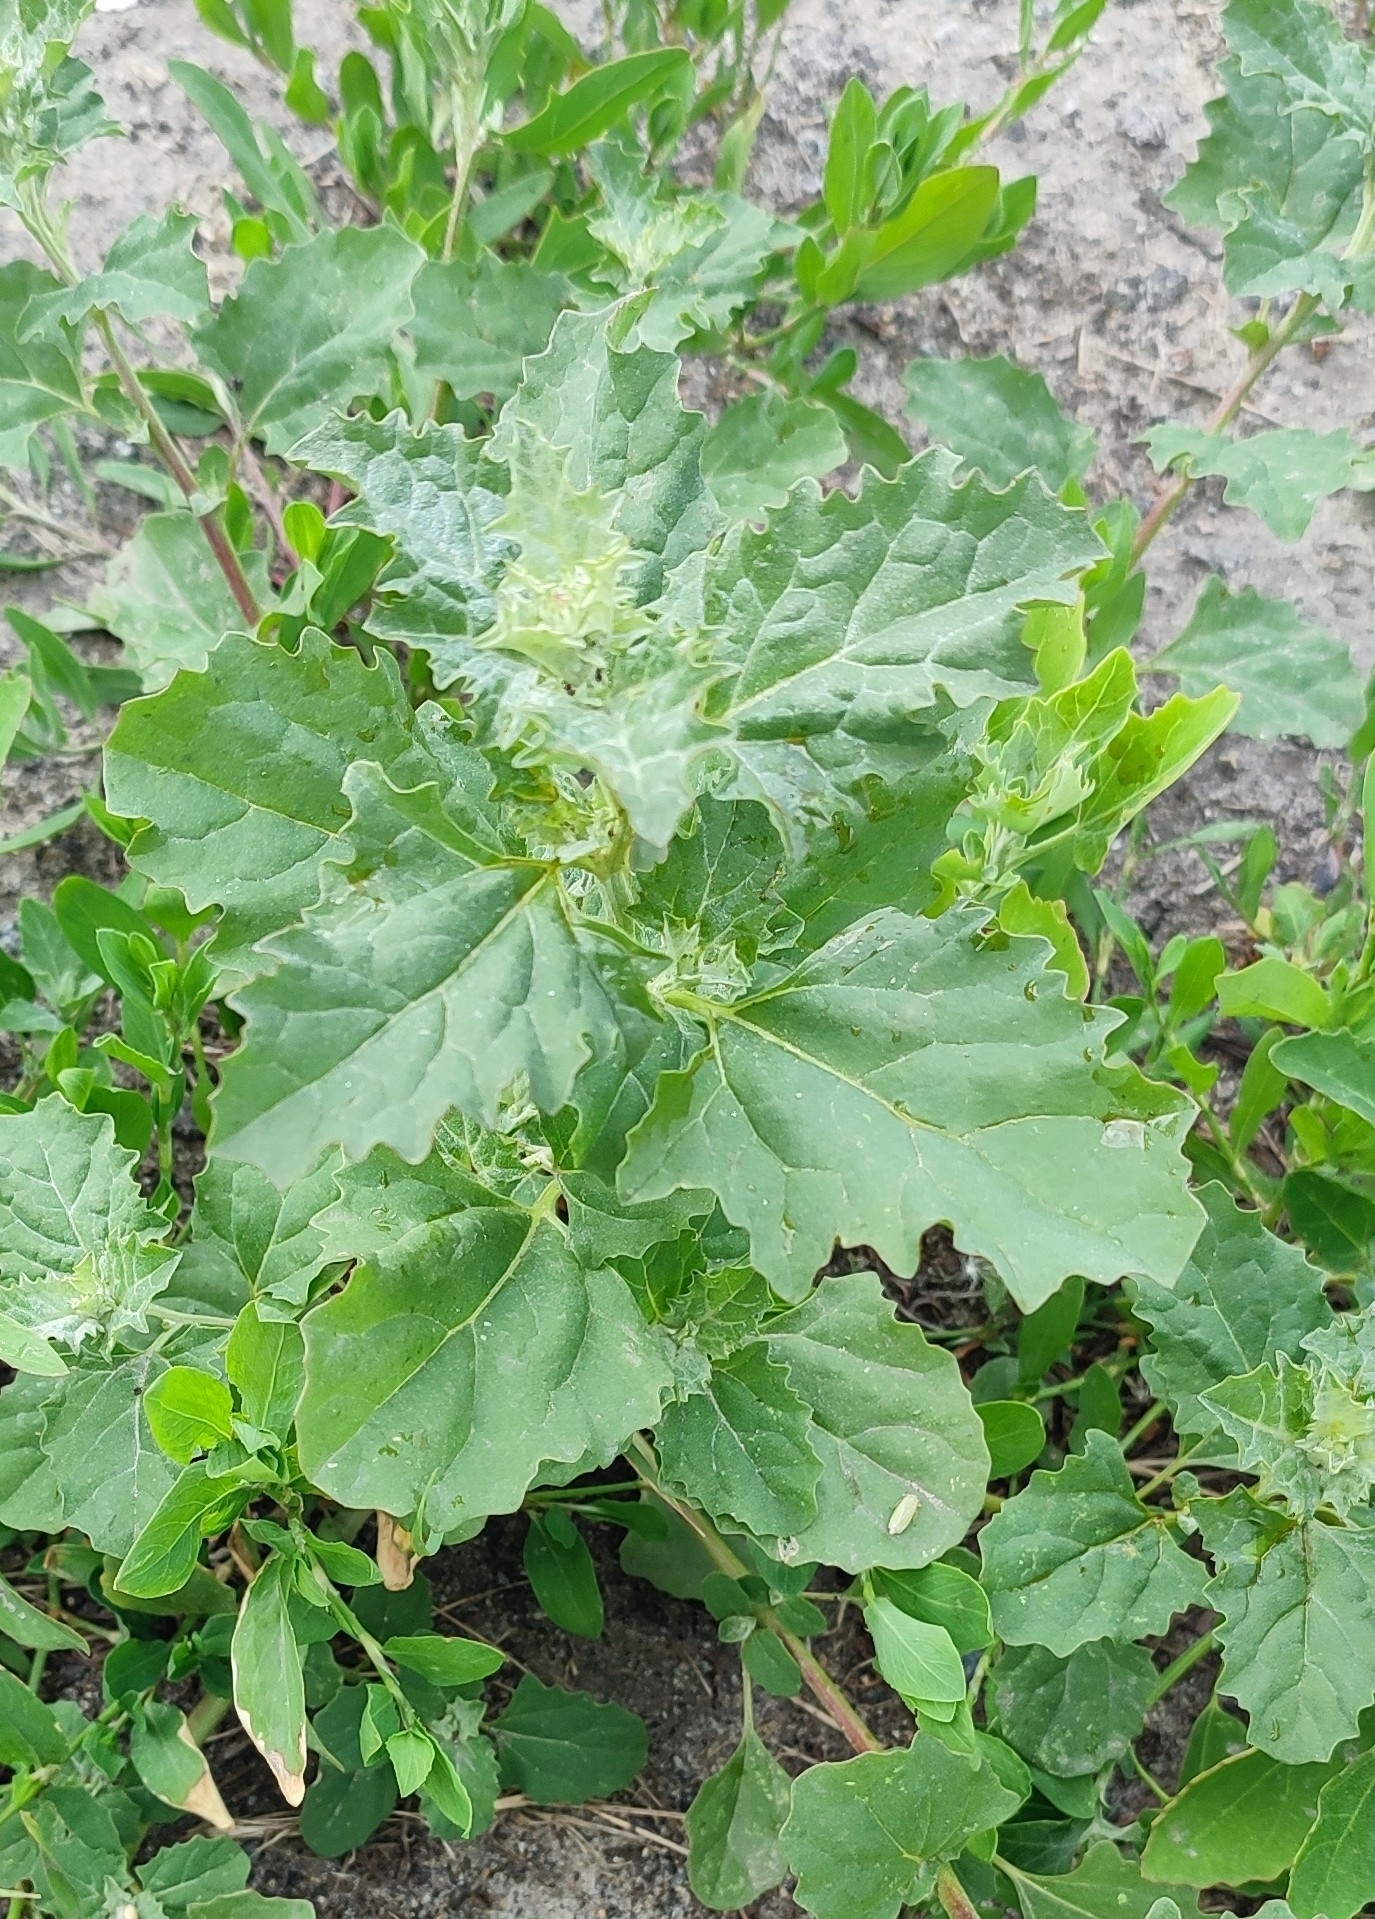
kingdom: Plantae
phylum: Tracheophyta
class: Magnoliopsida
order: Caryophyllales
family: Amaranthaceae
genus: Atriplex
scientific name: Atriplex tatarica
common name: Tatarian orache
